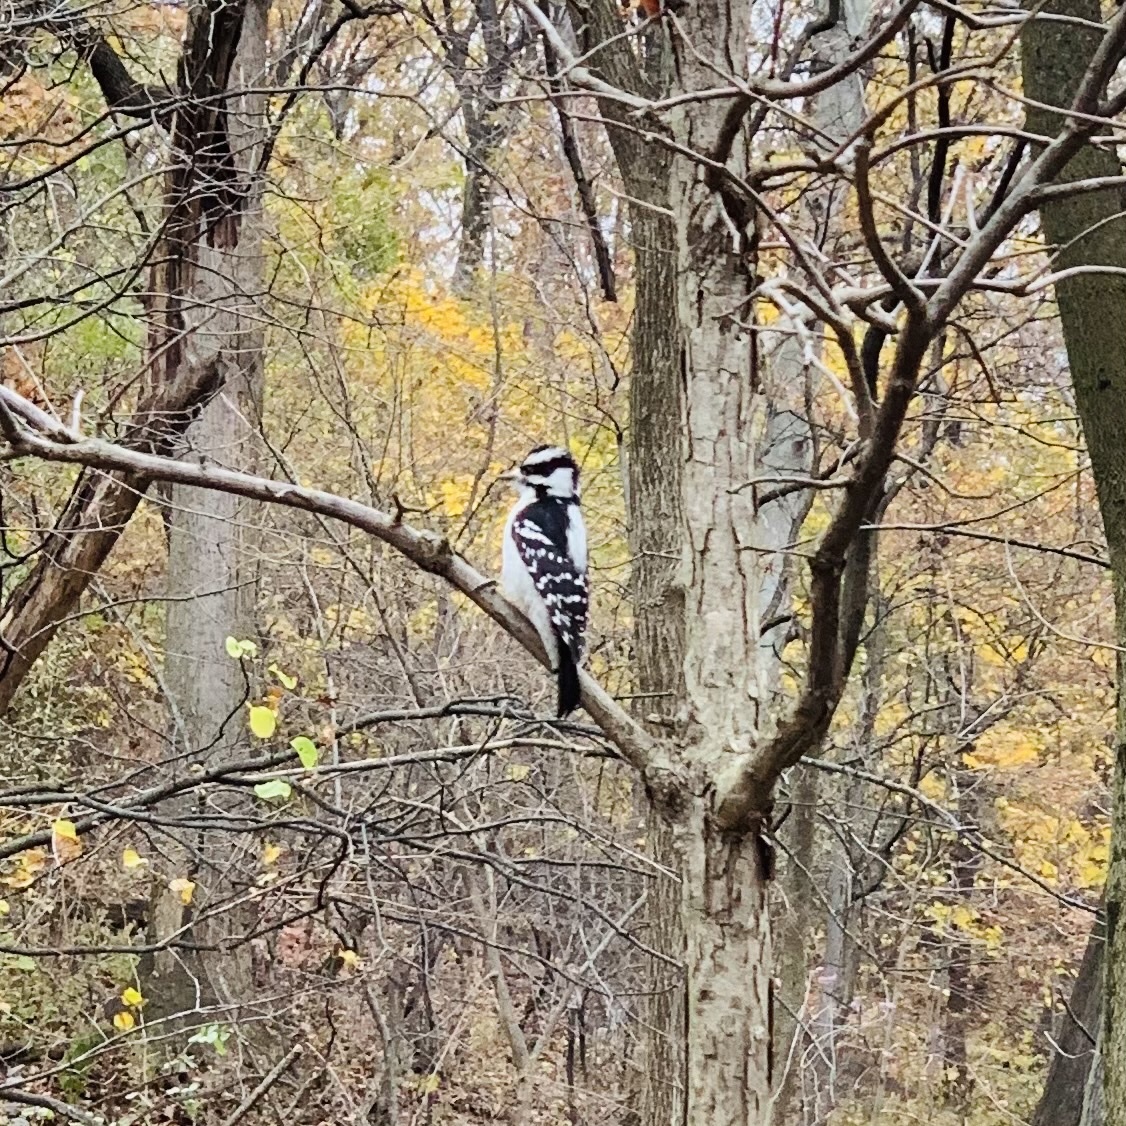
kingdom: Animalia
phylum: Chordata
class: Aves
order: Piciformes
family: Picidae
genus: Dryobates
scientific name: Dryobates pubescens
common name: Downy woodpecker
